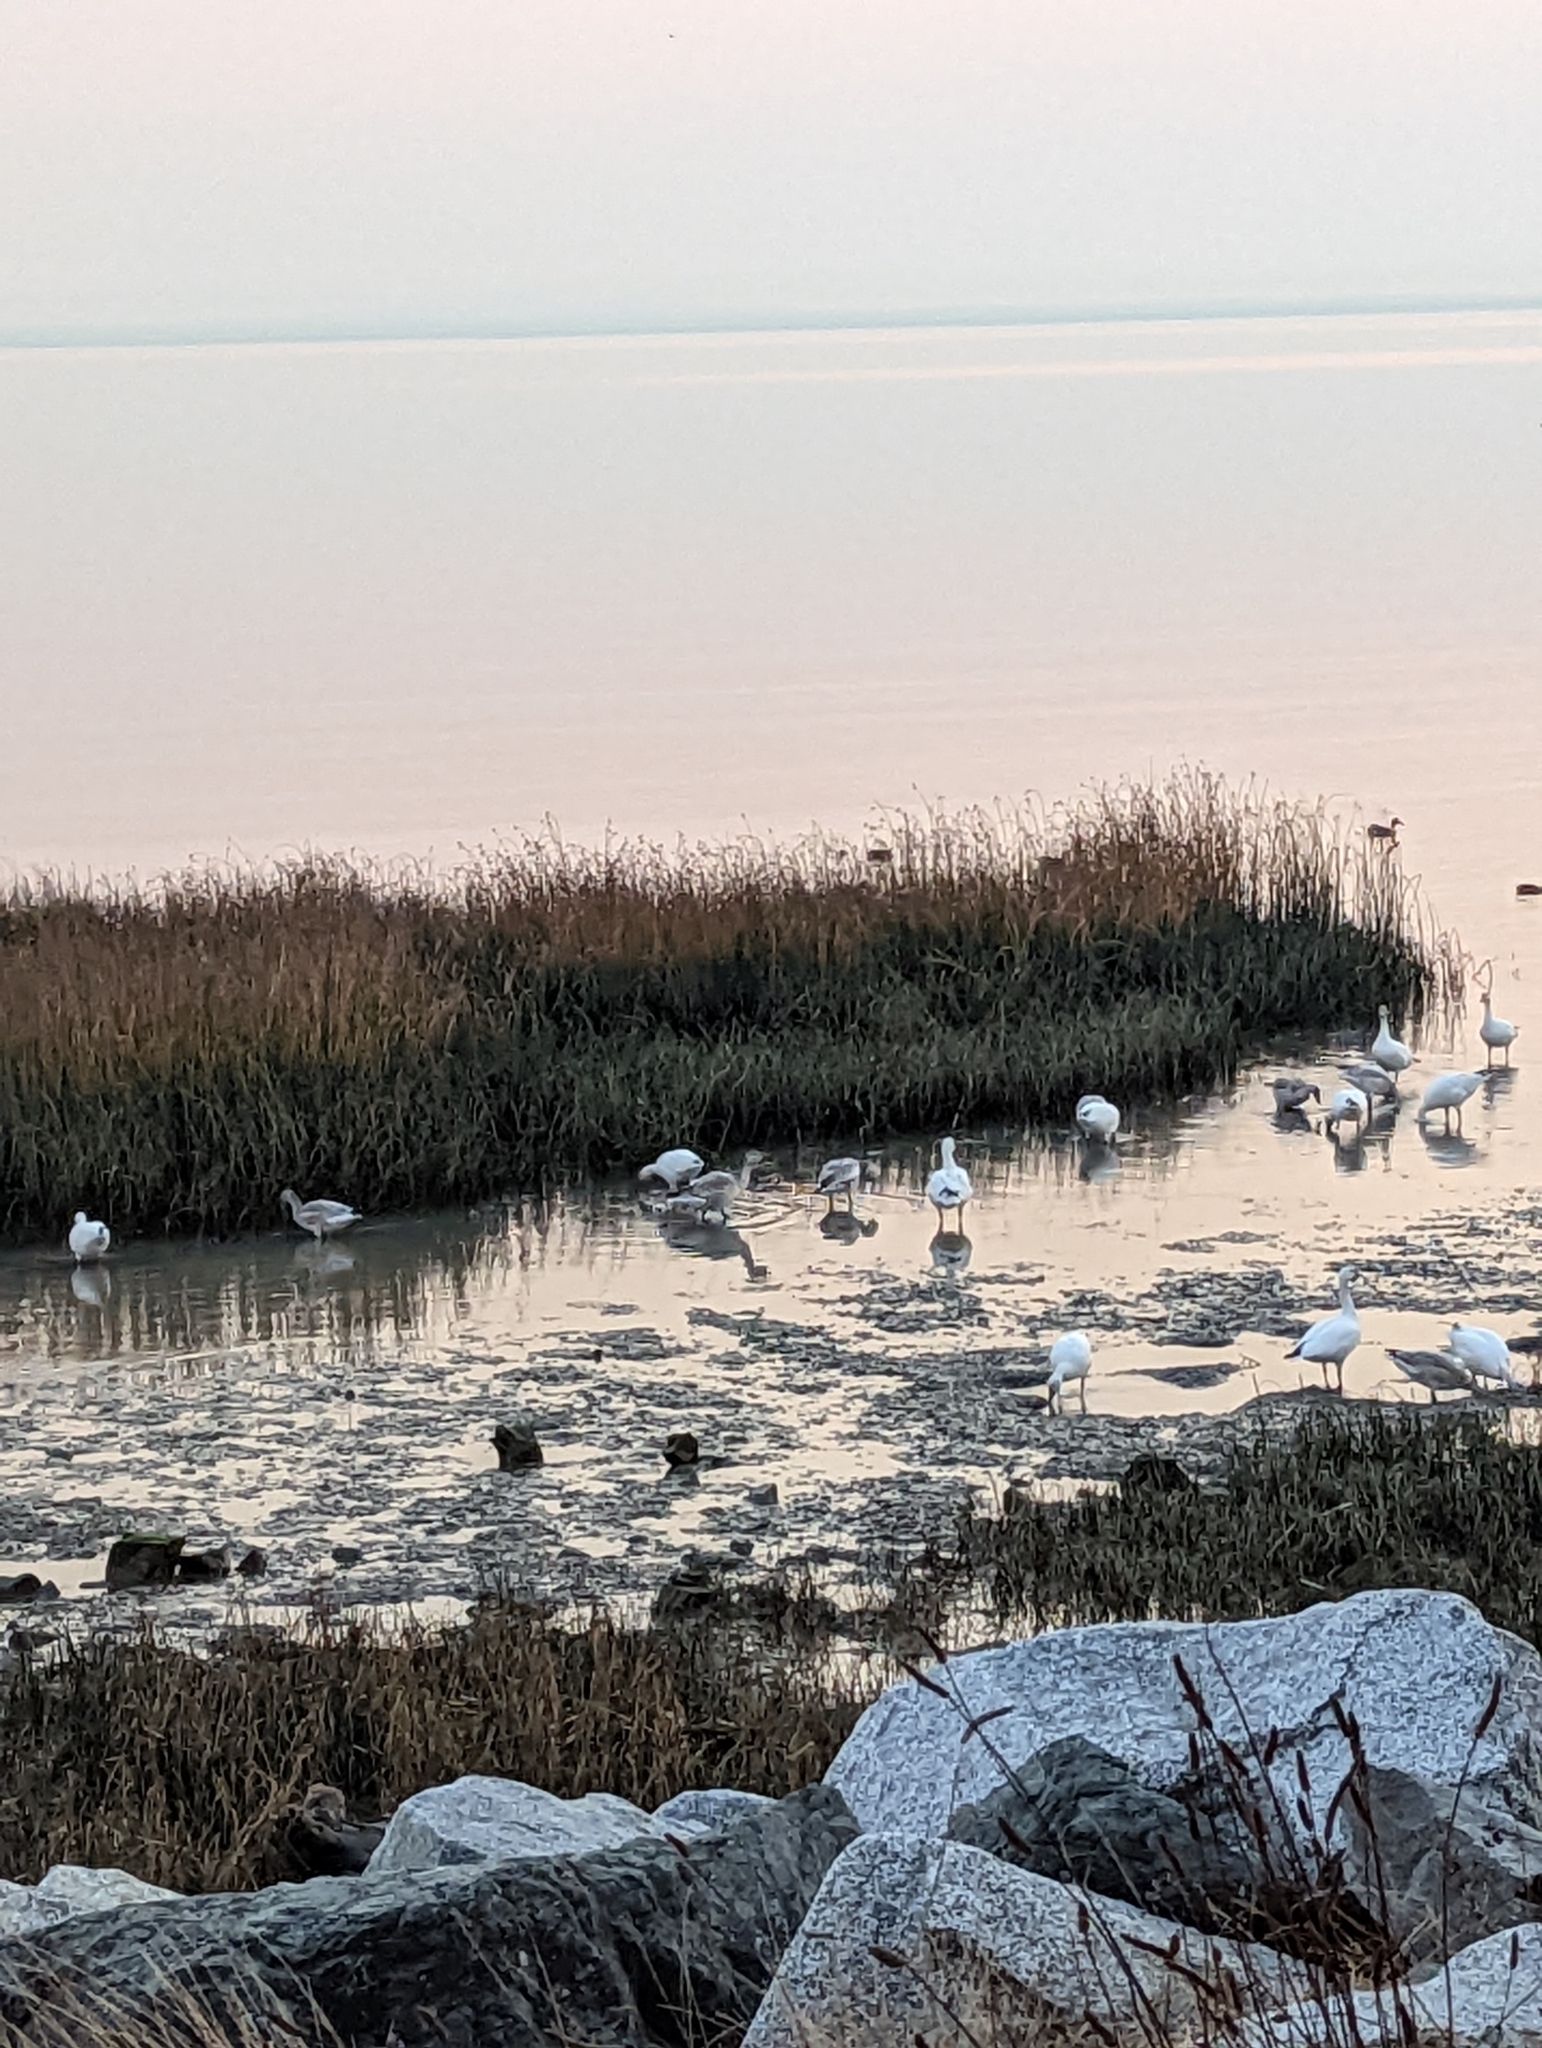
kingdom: Animalia
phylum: Chordata
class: Aves
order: Anseriformes
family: Anatidae
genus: Anser
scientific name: Anser caerulescens
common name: Snow goose
